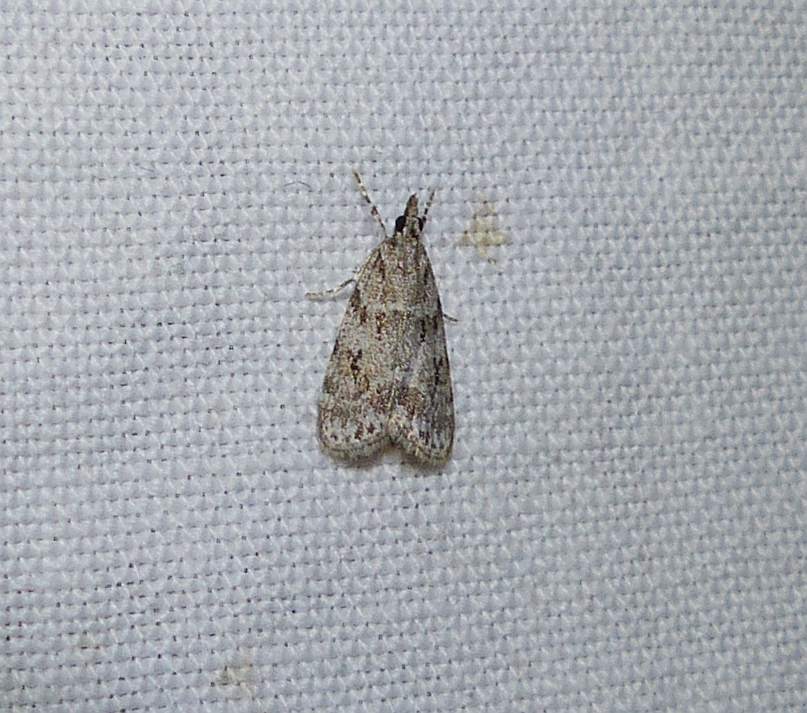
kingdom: Animalia
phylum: Arthropoda
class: Insecta
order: Lepidoptera
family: Crambidae
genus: Scoparia
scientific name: Scoparia basalis
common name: Many-spotted scoparia moth
